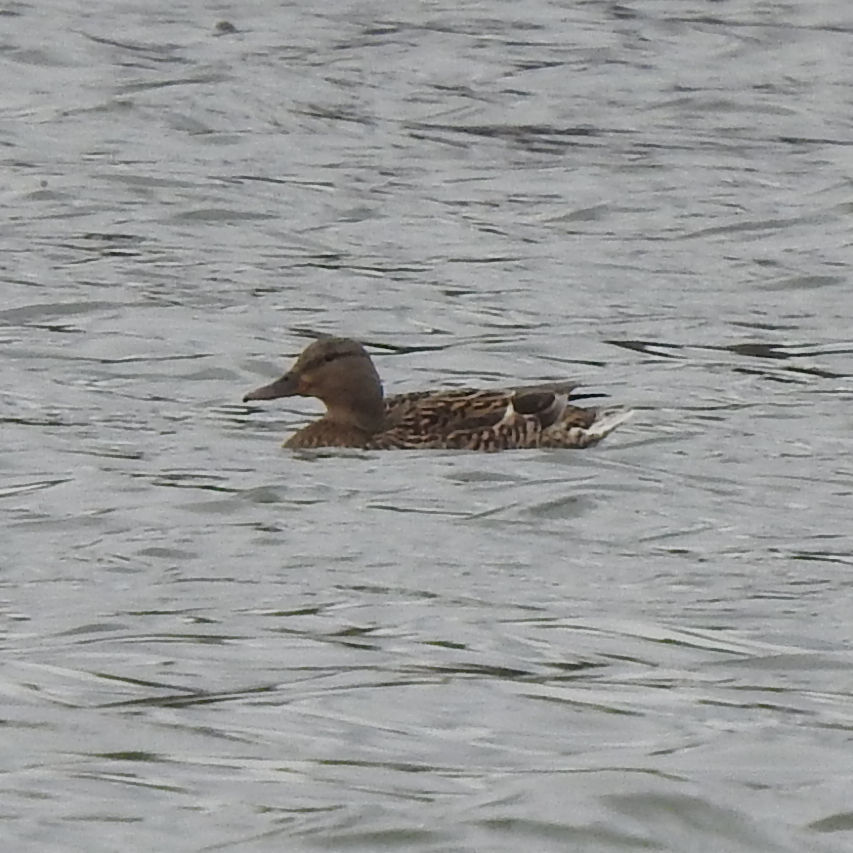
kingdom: Animalia
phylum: Chordata
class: Aves
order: Anseriformes
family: Anatidae
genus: Anas
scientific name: Anas platyrhynchos
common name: Mallard
